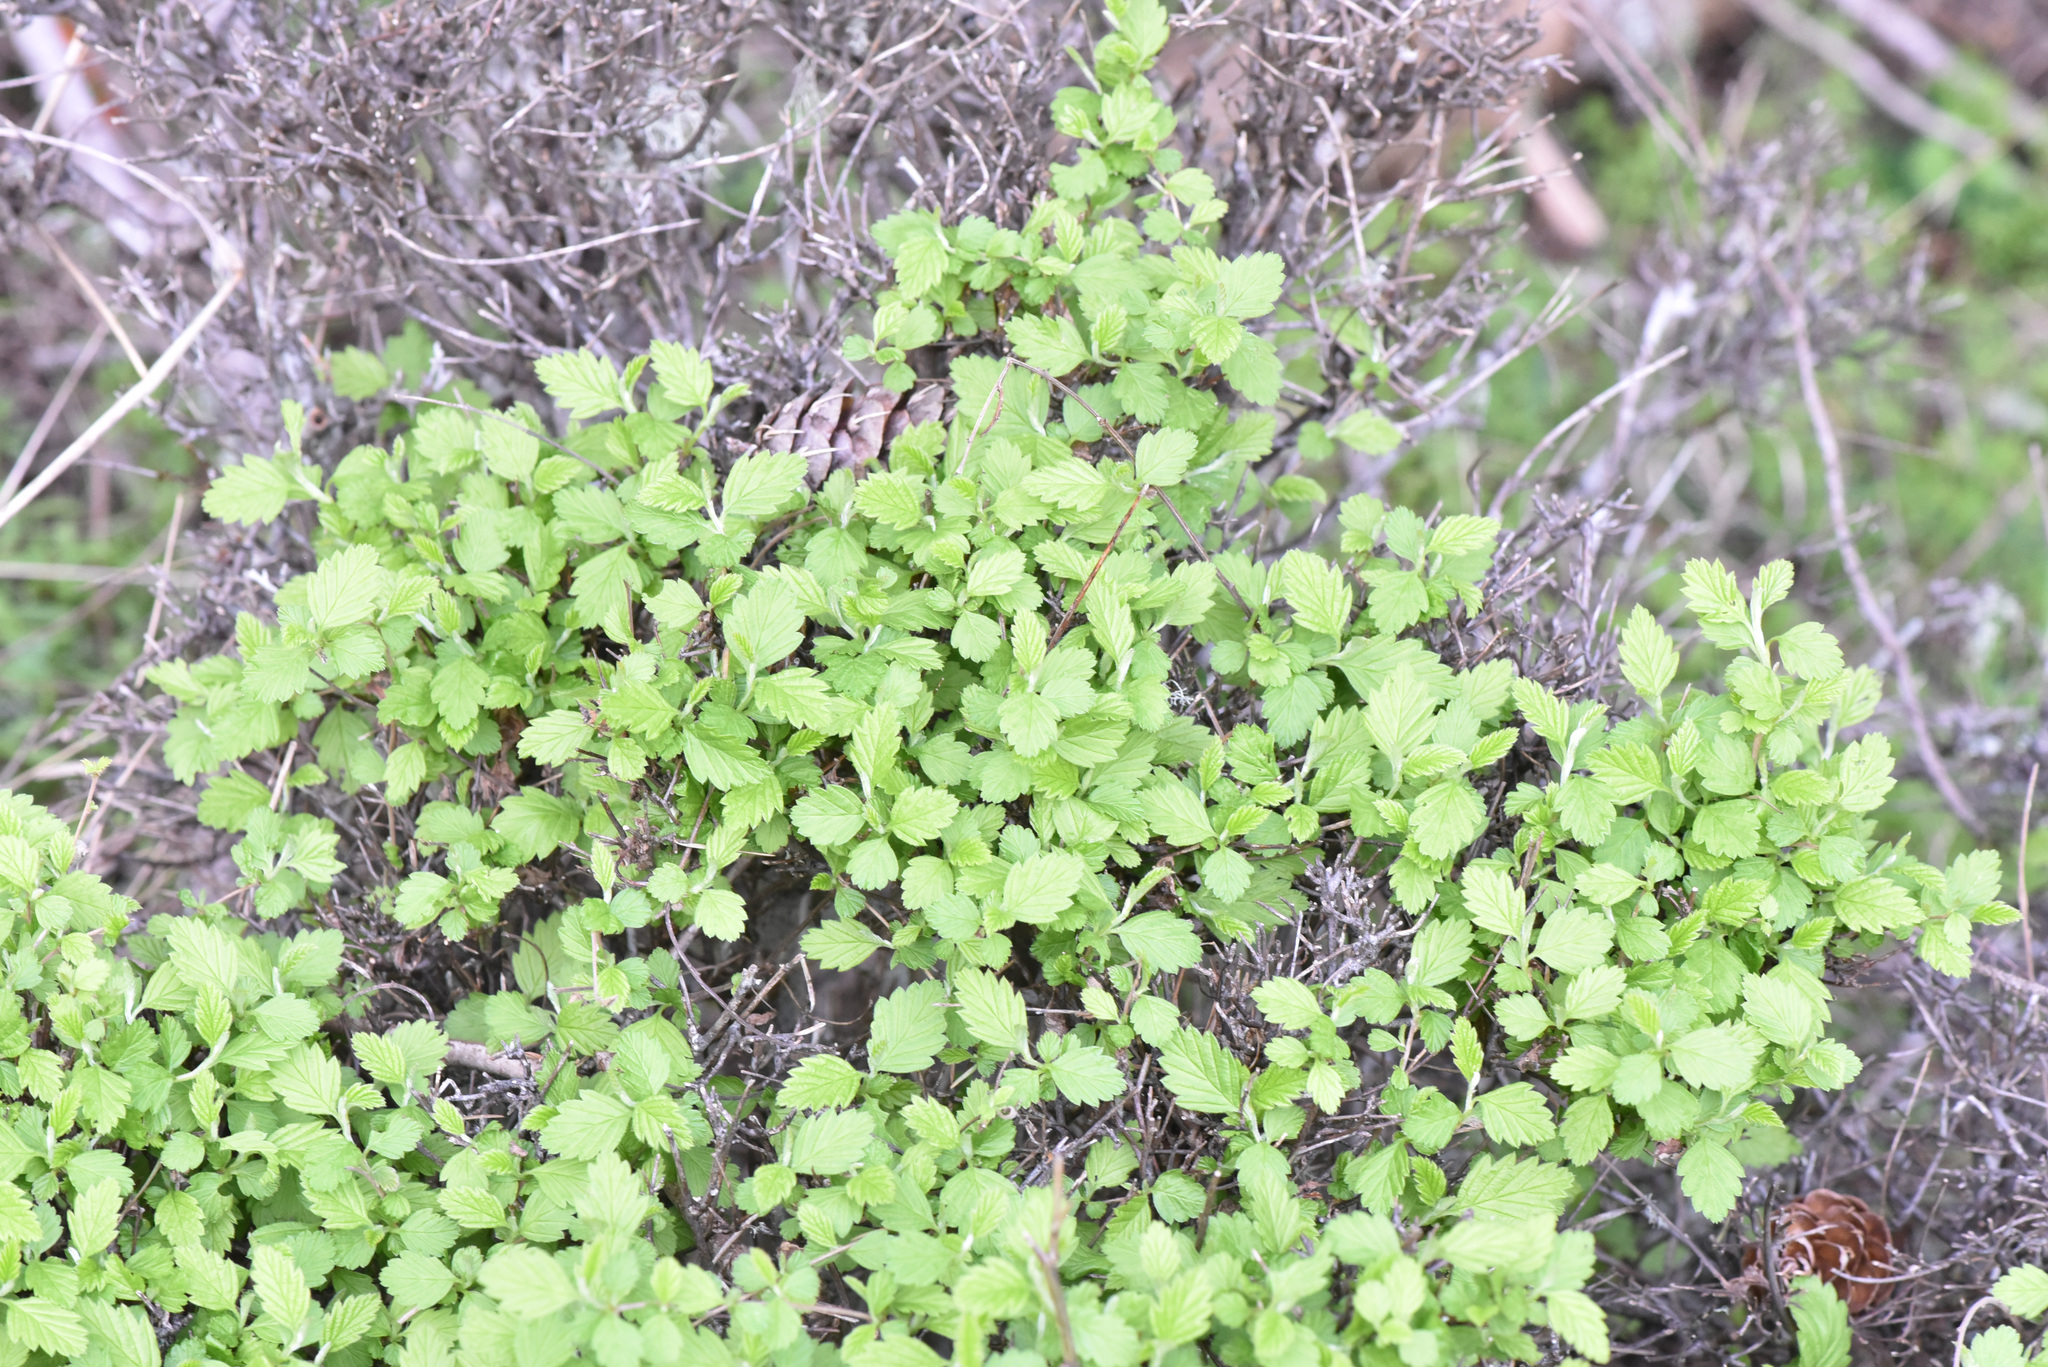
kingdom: Plantae
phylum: Tracheophyta
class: Magnoliopsida
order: Rosales
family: Rosaceae
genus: Holodiscus
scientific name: Holodiscus discolor
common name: Oceanspray
